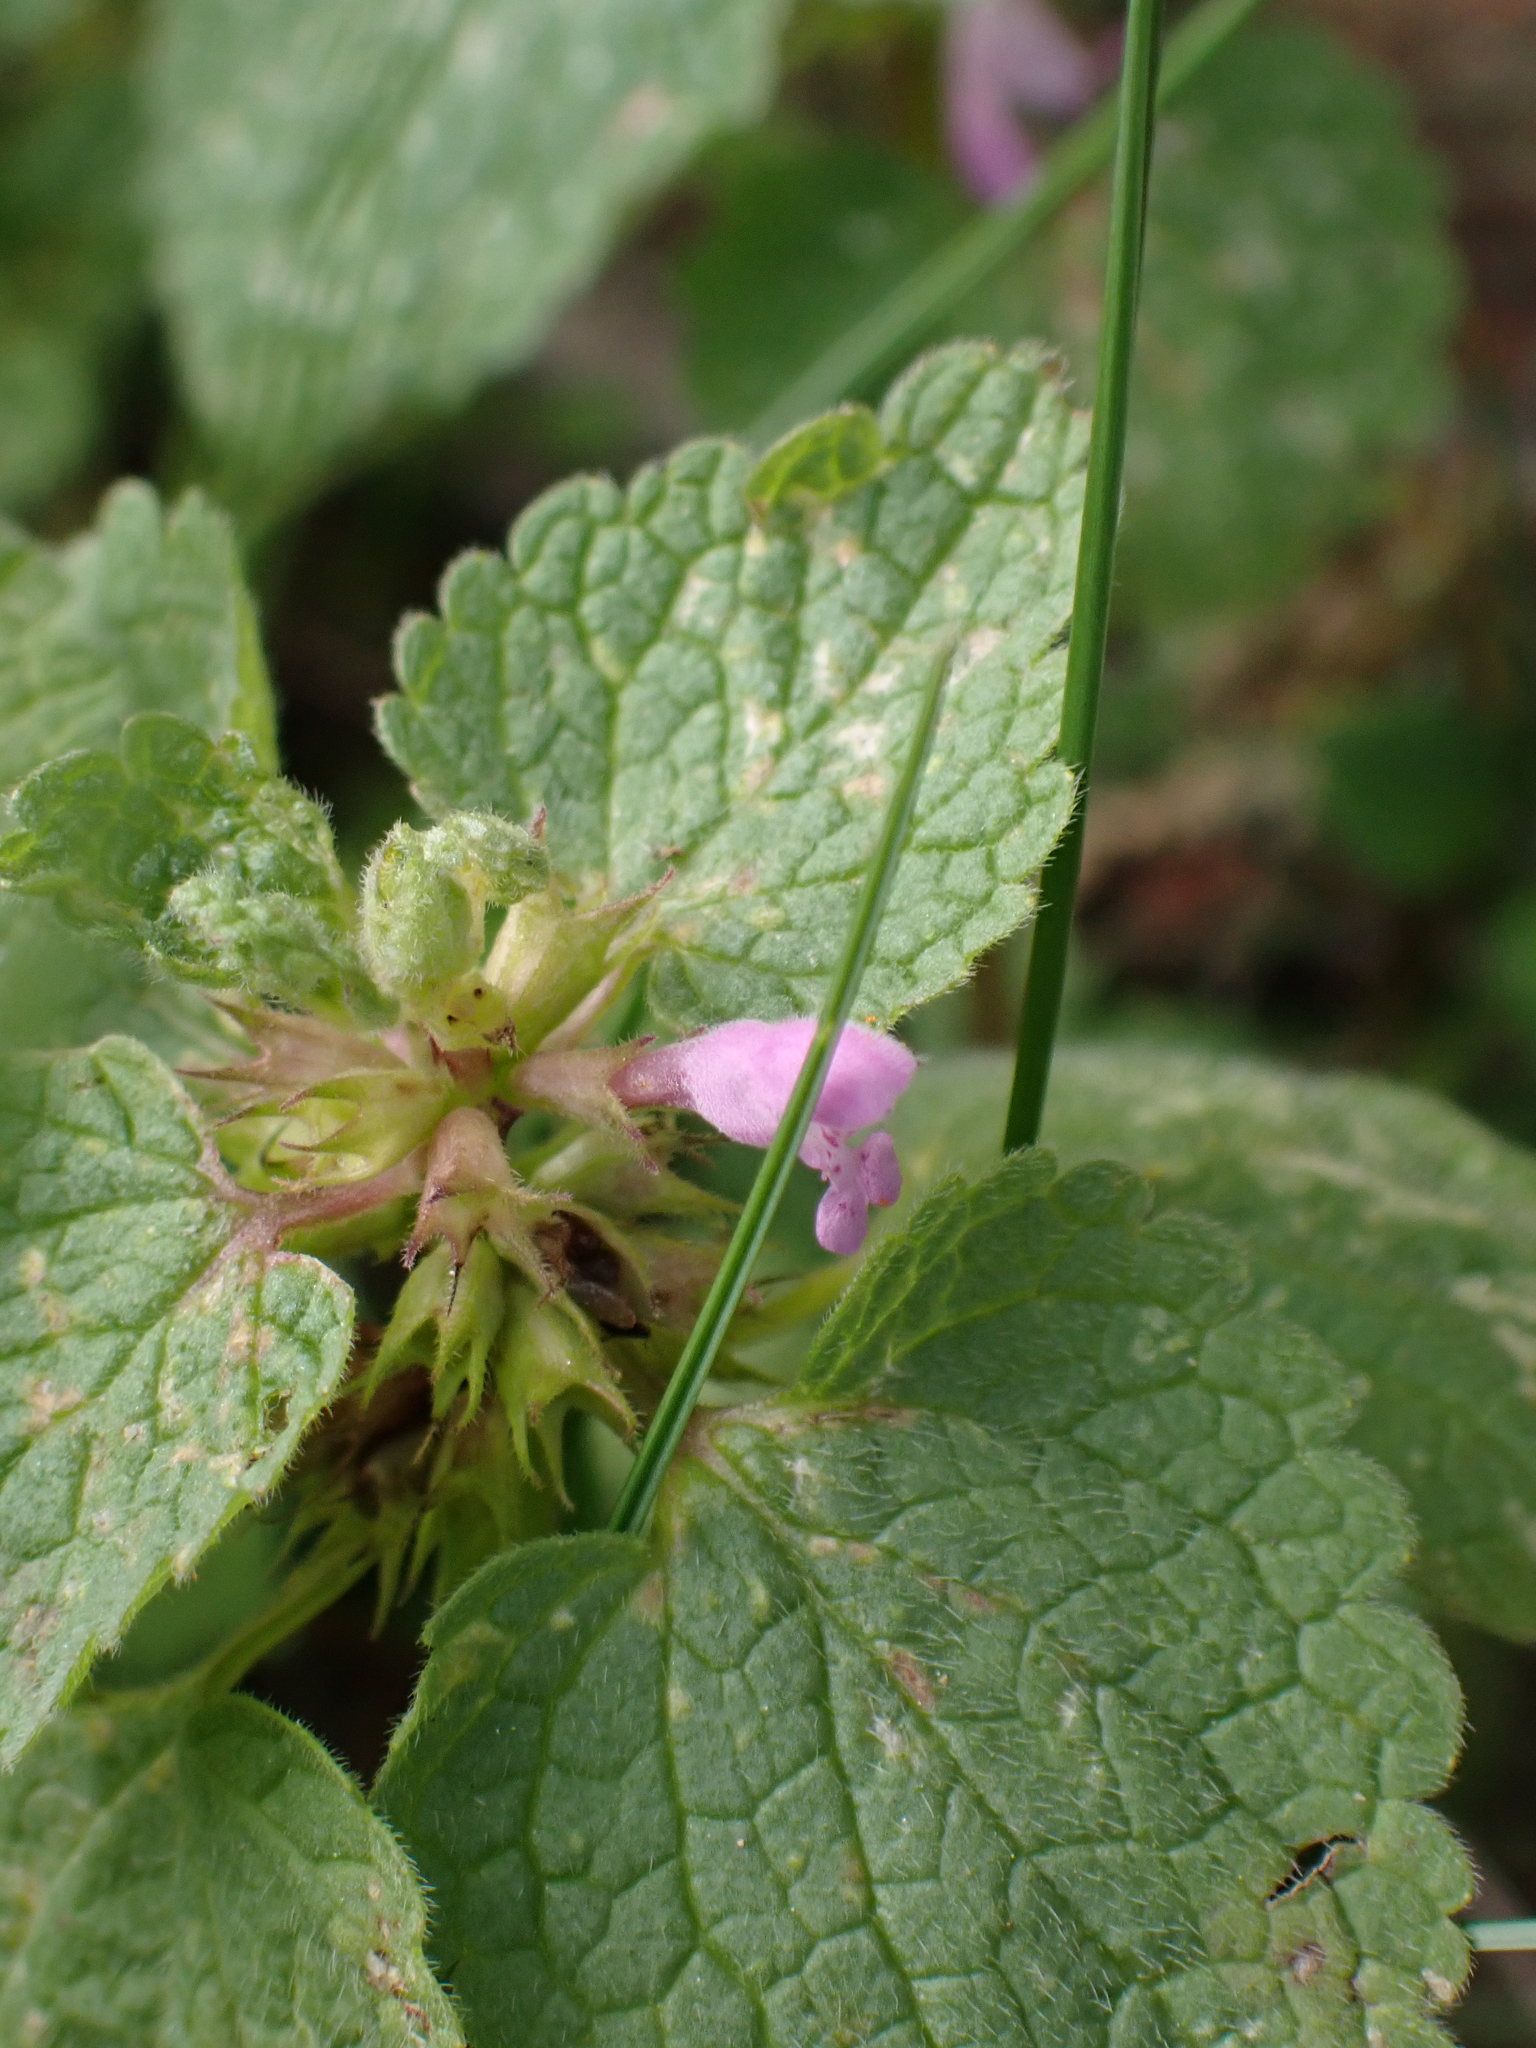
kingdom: Plantae
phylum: Tracheophyta
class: Magnoliopsida
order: Lamiales
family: Lamiaceae
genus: Lamium
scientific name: Lamium purpureum
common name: Red dead-nettle
